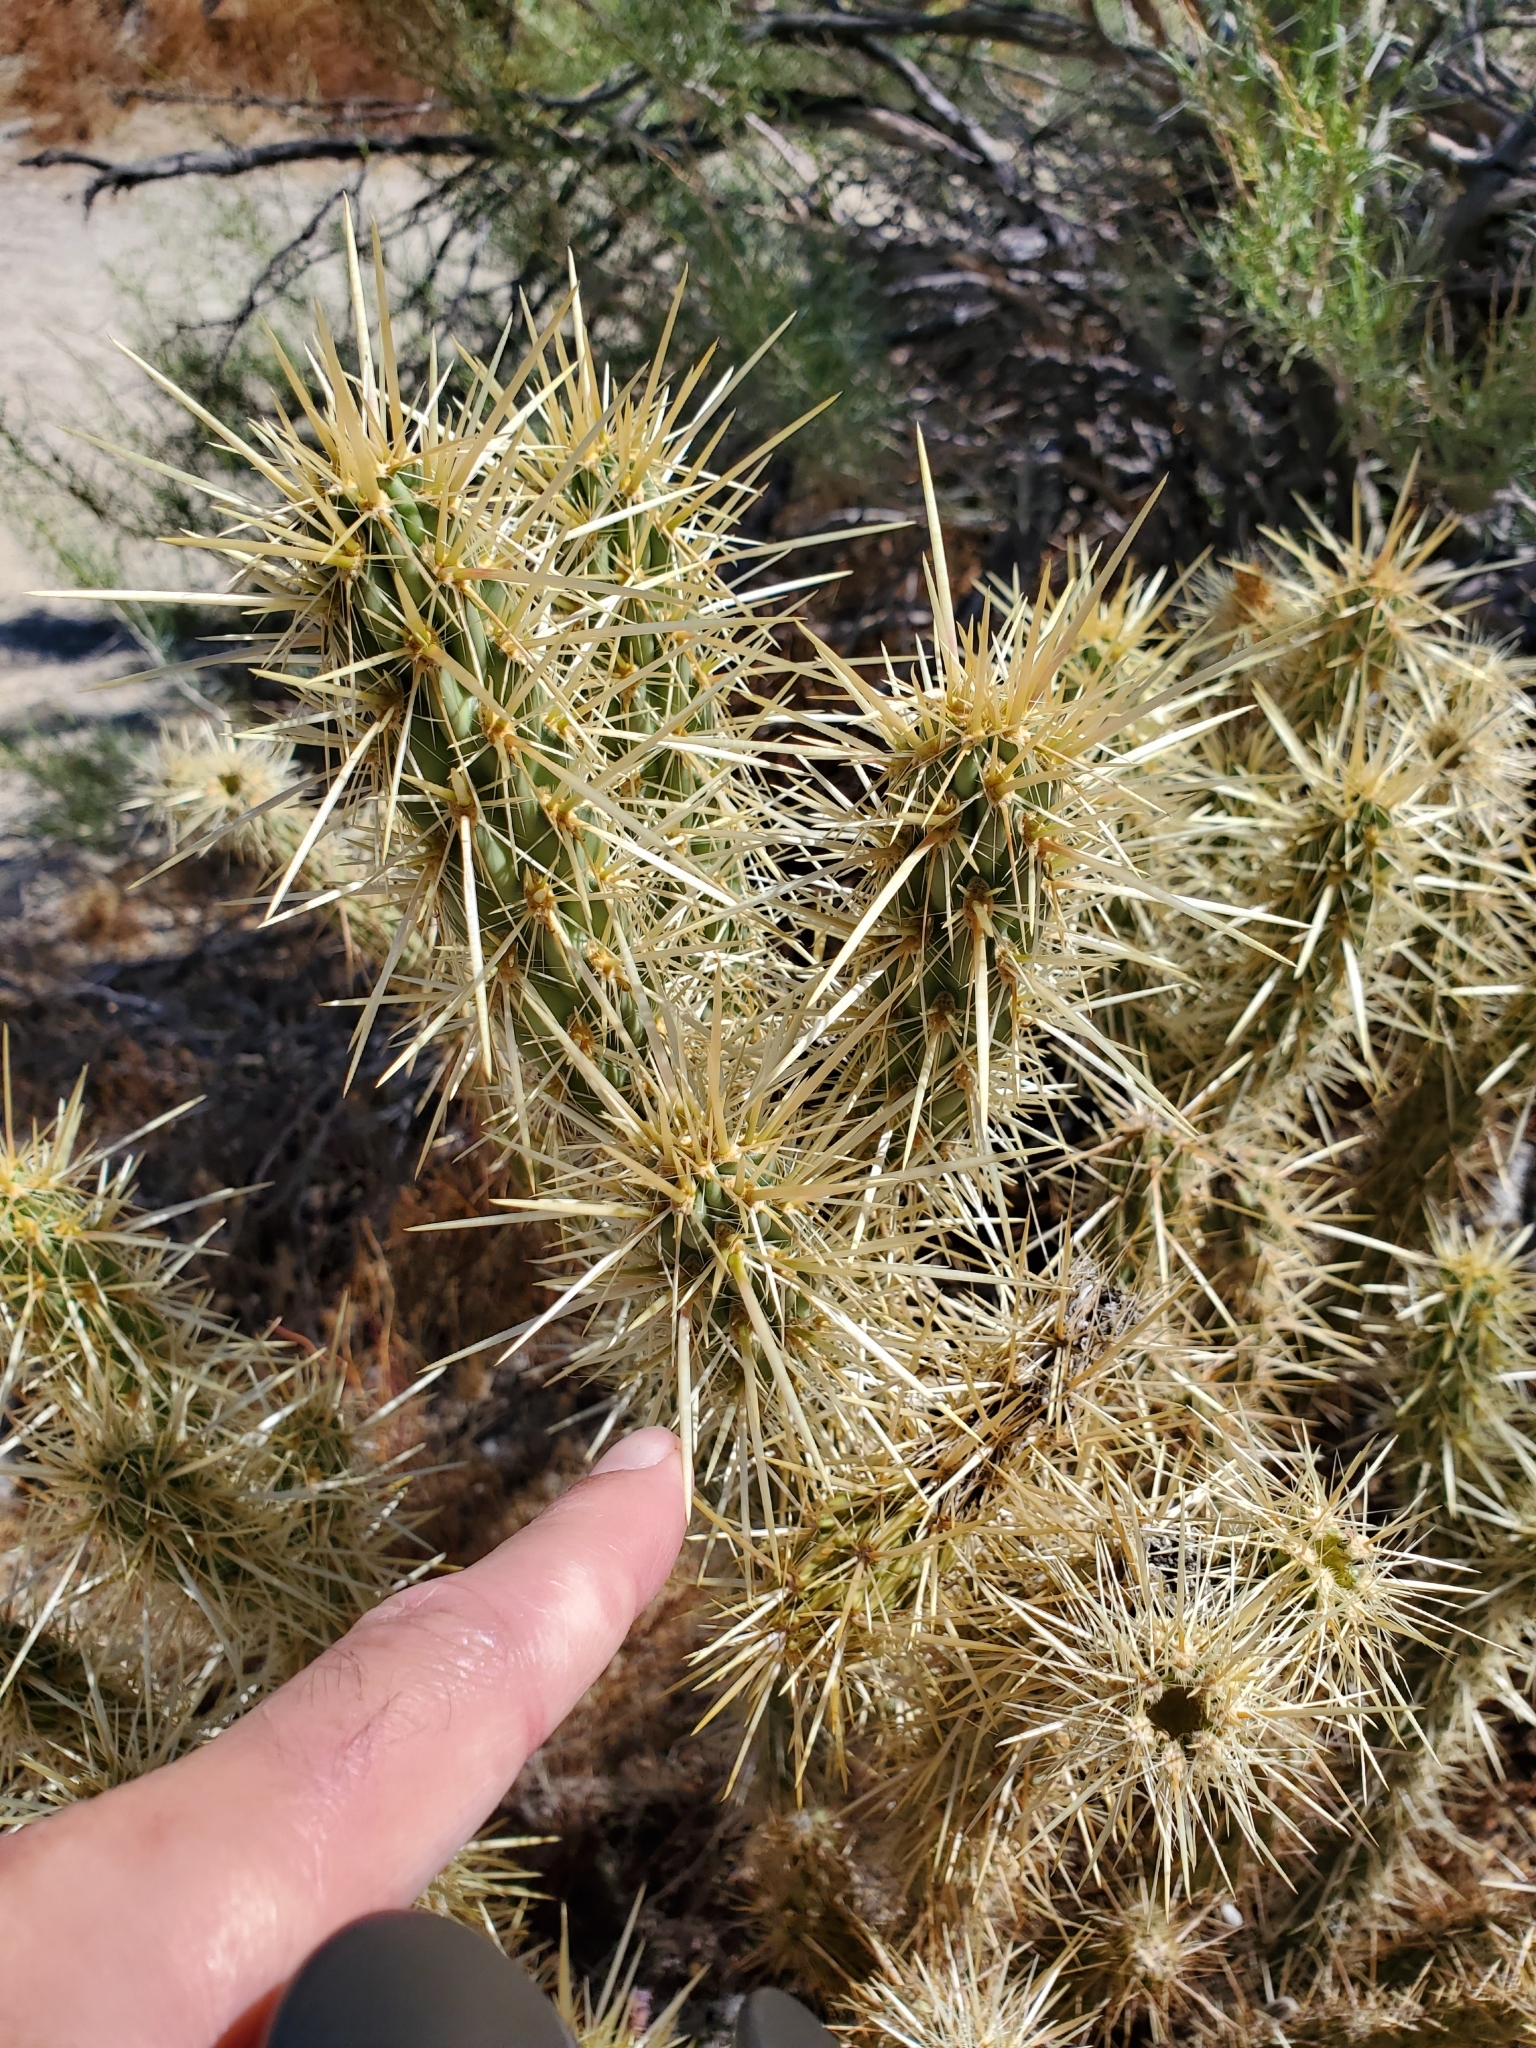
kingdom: Plantae
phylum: Tracheophyta
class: Magnoliopsida
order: Caryophyllales
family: Cactaceae
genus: Cylindropuntia
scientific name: Cylindropuntia echinocarpa
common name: Ground cholla
